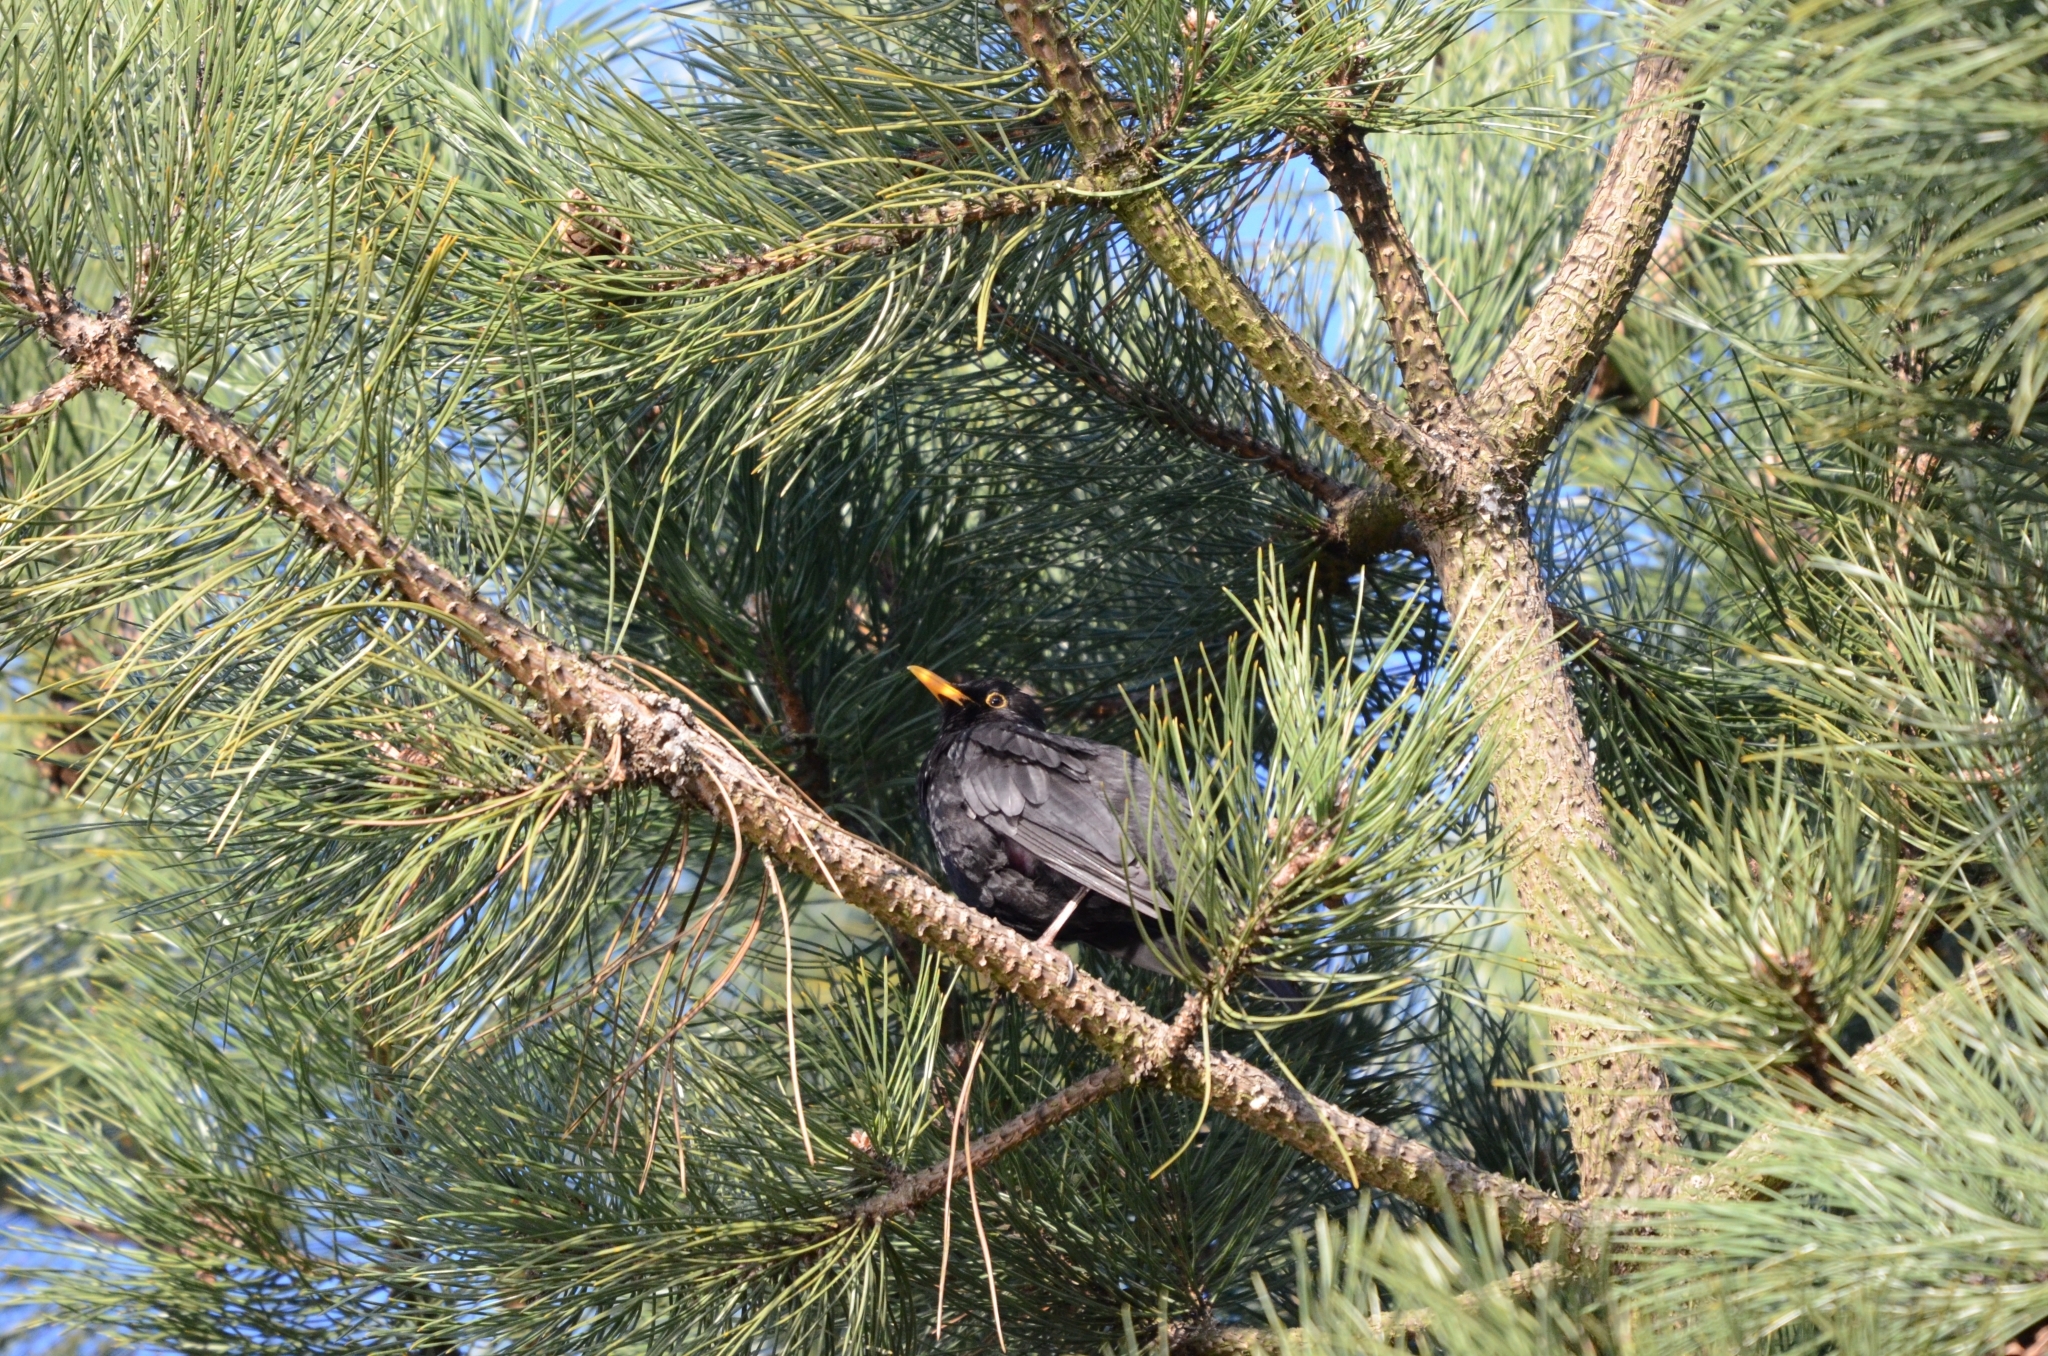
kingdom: Animalia
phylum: Chordata
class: Aves
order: Passeriformes
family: Turdidae
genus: Turdus
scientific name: Turdus merula
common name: Common blackbird
